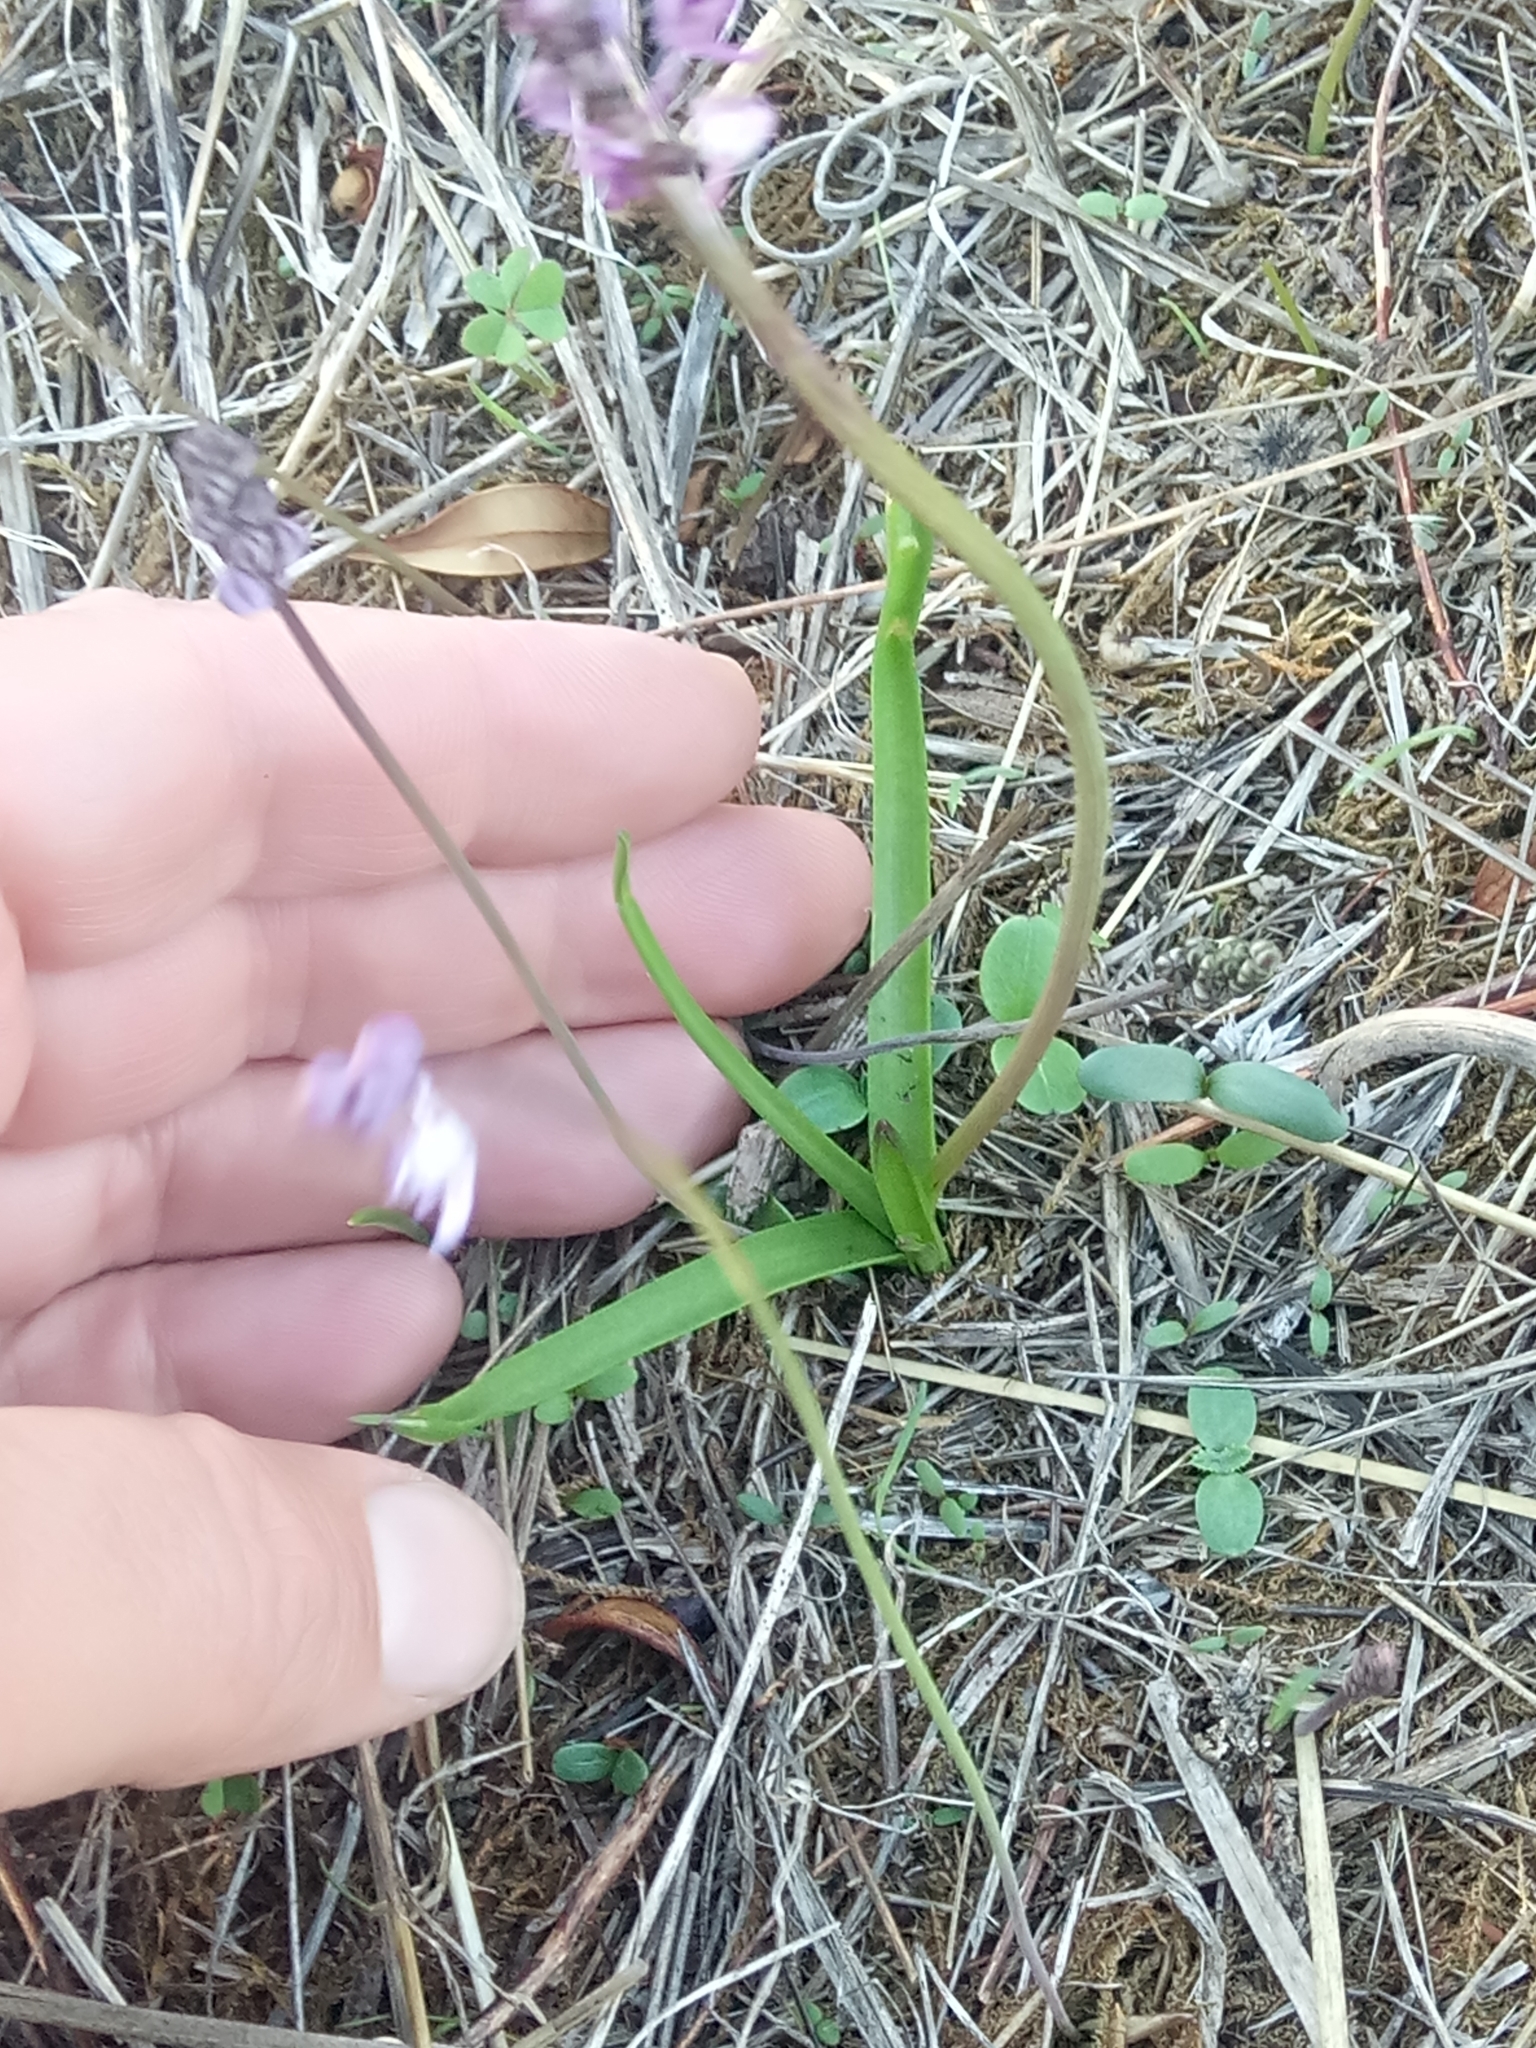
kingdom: Plantae
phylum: Tracheophyta
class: Liliopsida
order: Asparagales
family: Asparagaceae
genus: Barnardia
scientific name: Barnardia numidica
